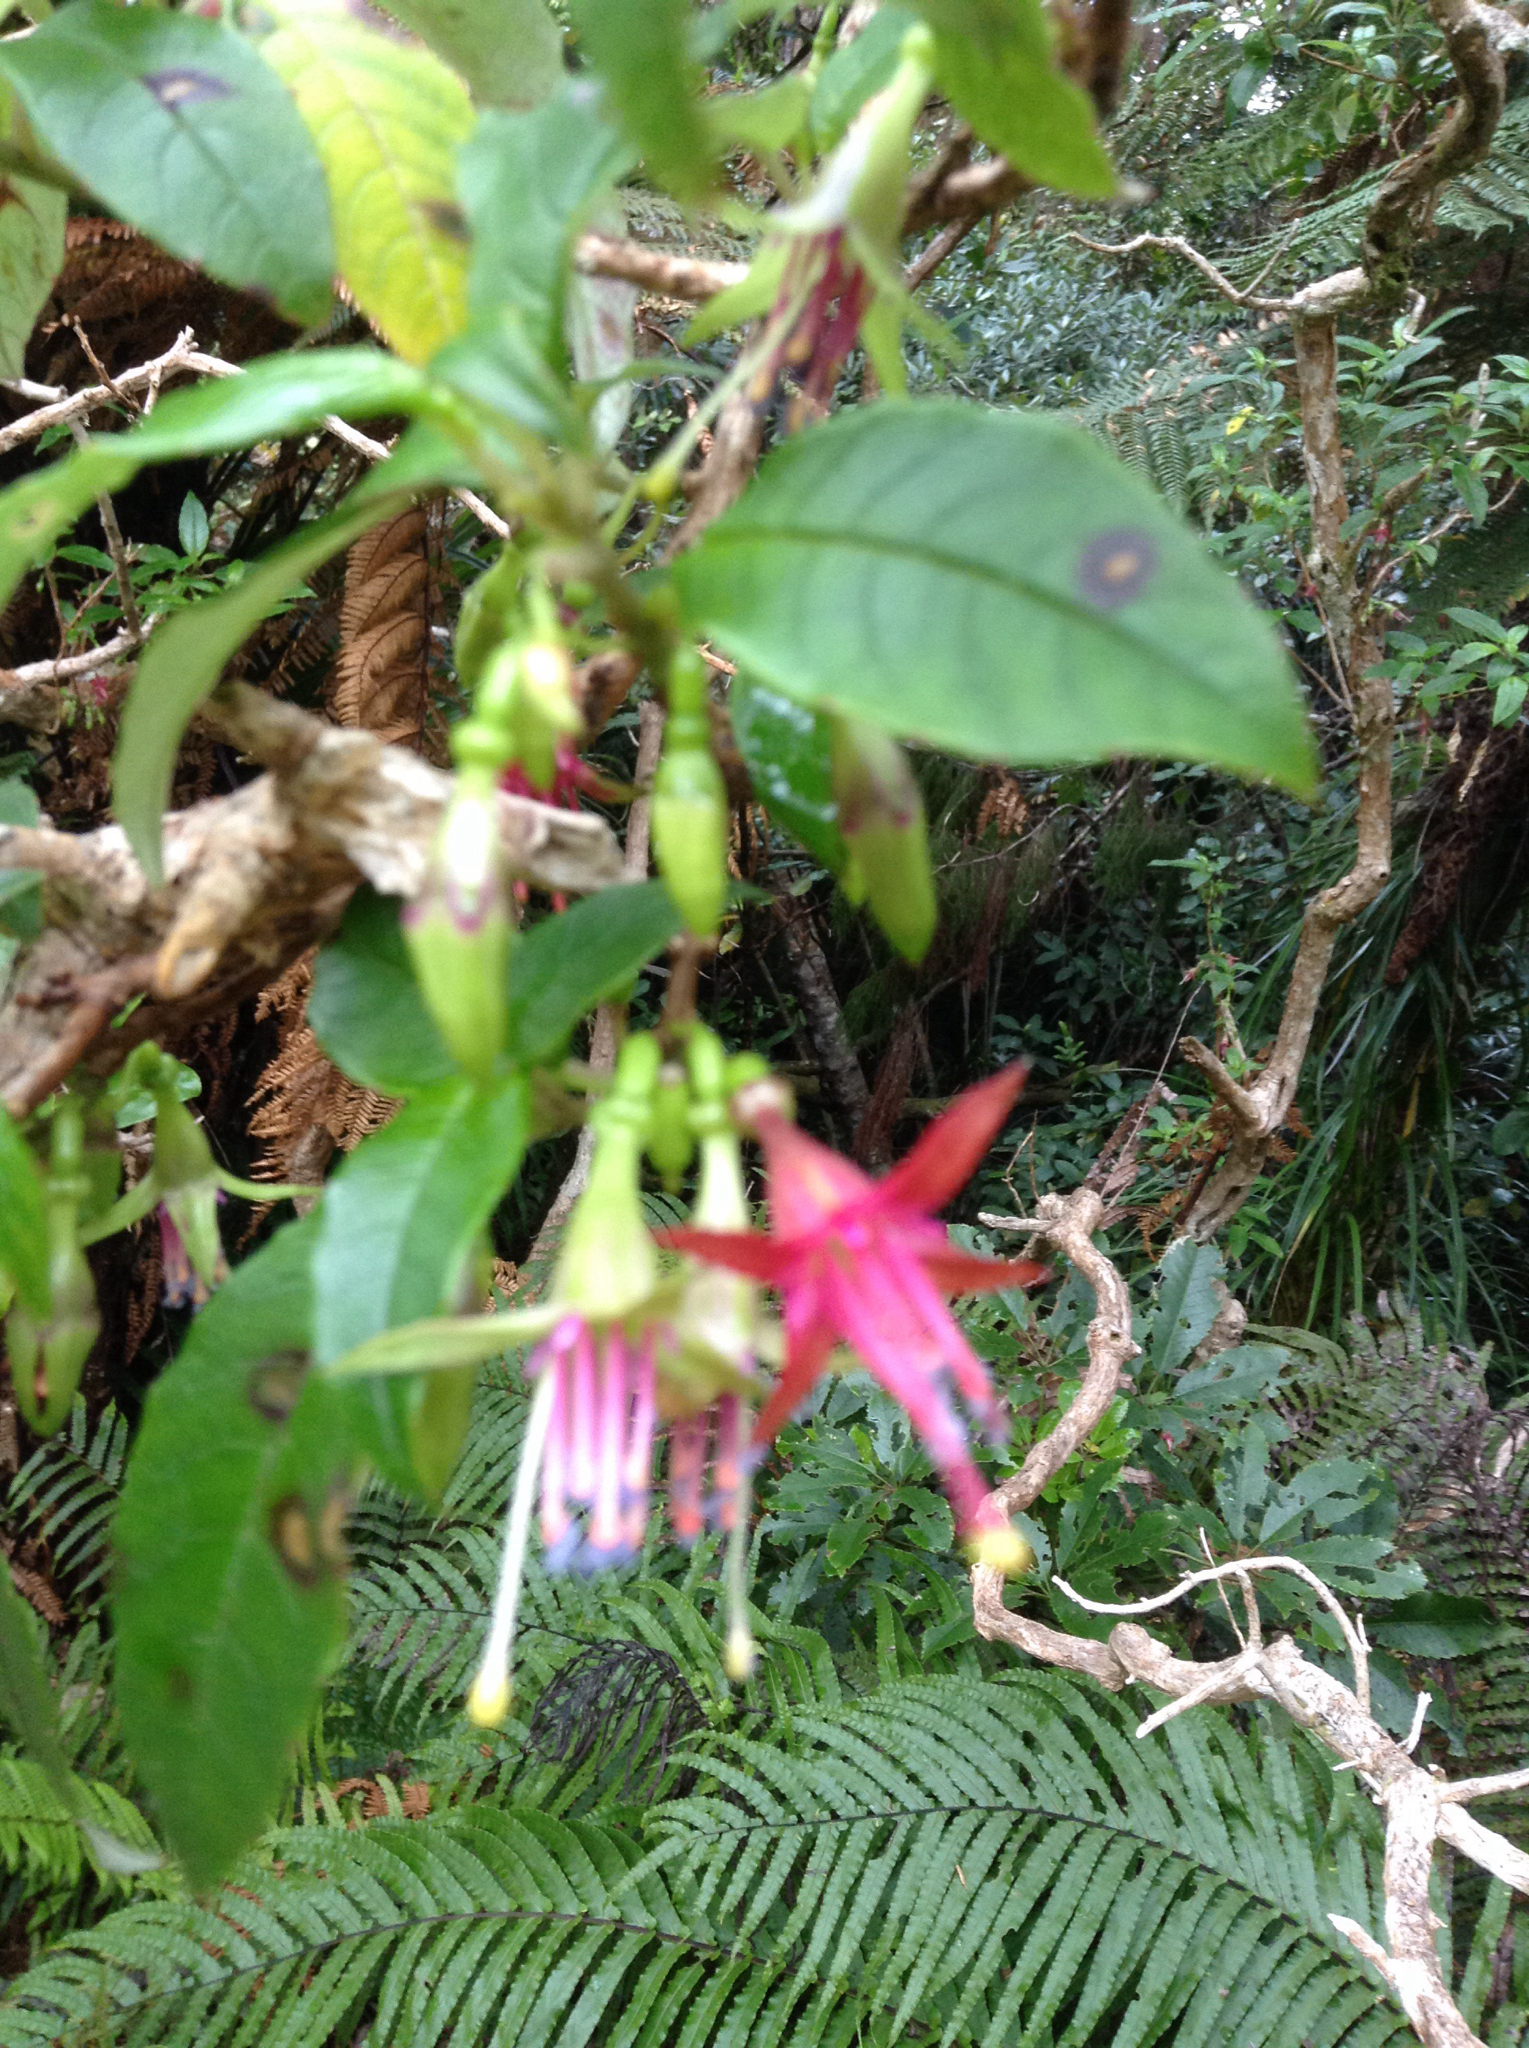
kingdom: Plantae
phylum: Tracheophyta
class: Magnoliopsida
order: Myrtales
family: Onagraceae
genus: Fuchsia
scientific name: Fuchsia excorticata
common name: Tree fuchsia
